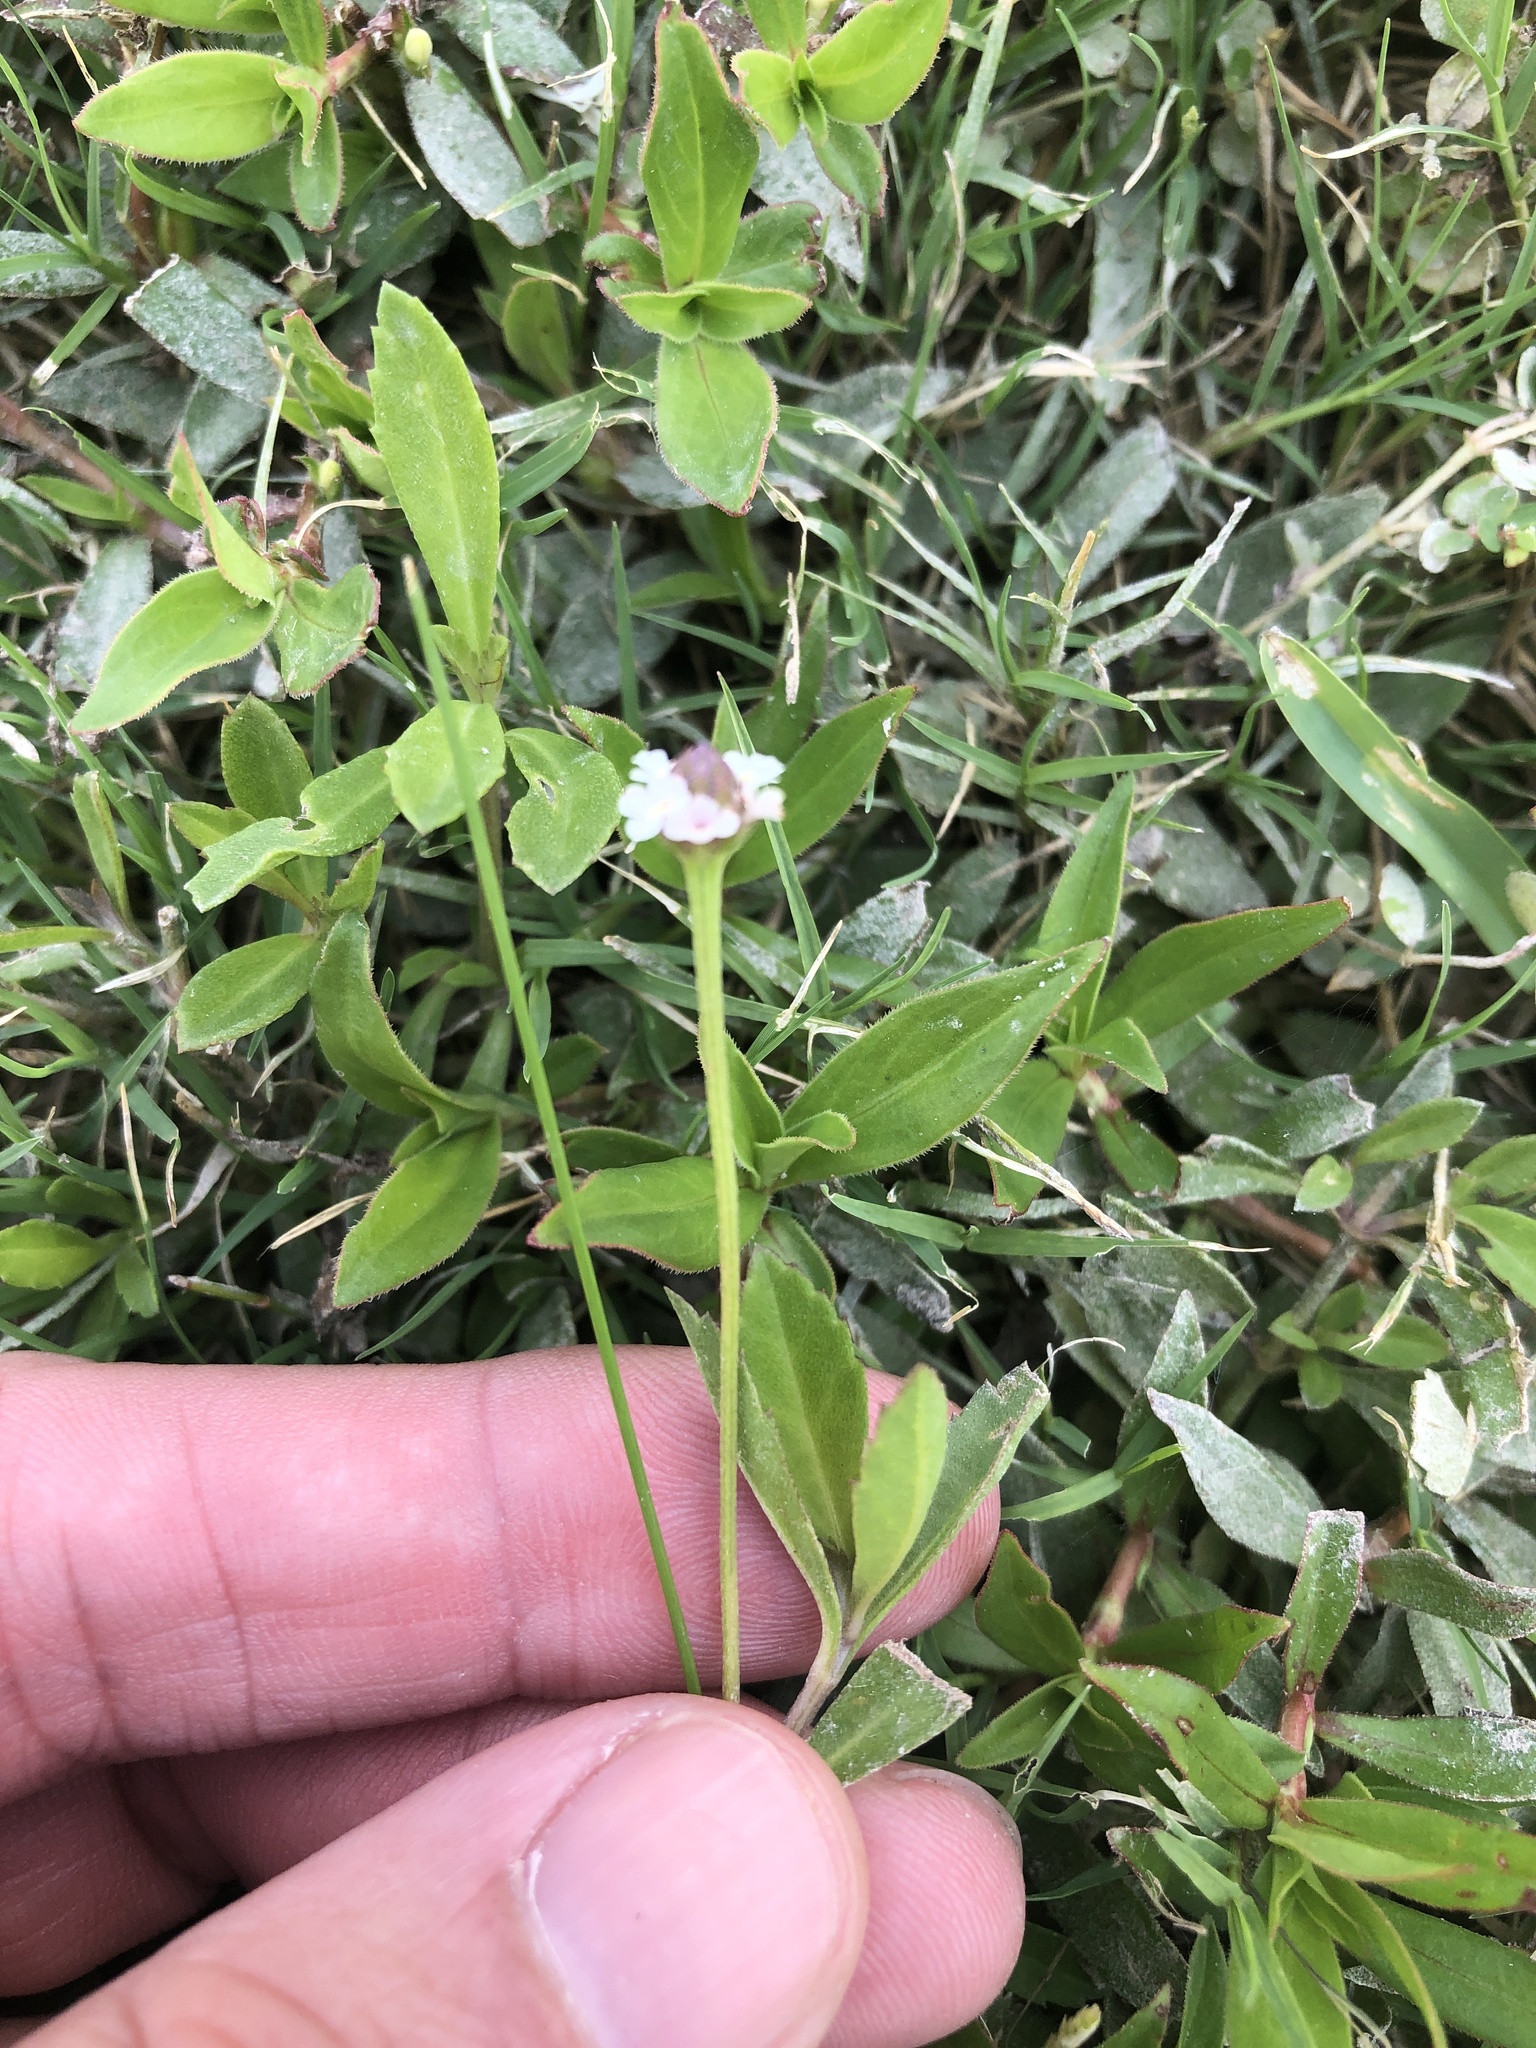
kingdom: Plantae
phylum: Tracheophyta
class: Magnoliopsida
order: Lamiales
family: Verbenaceae
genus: Phyla
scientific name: Phyla nodiflora
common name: Frogfruit
